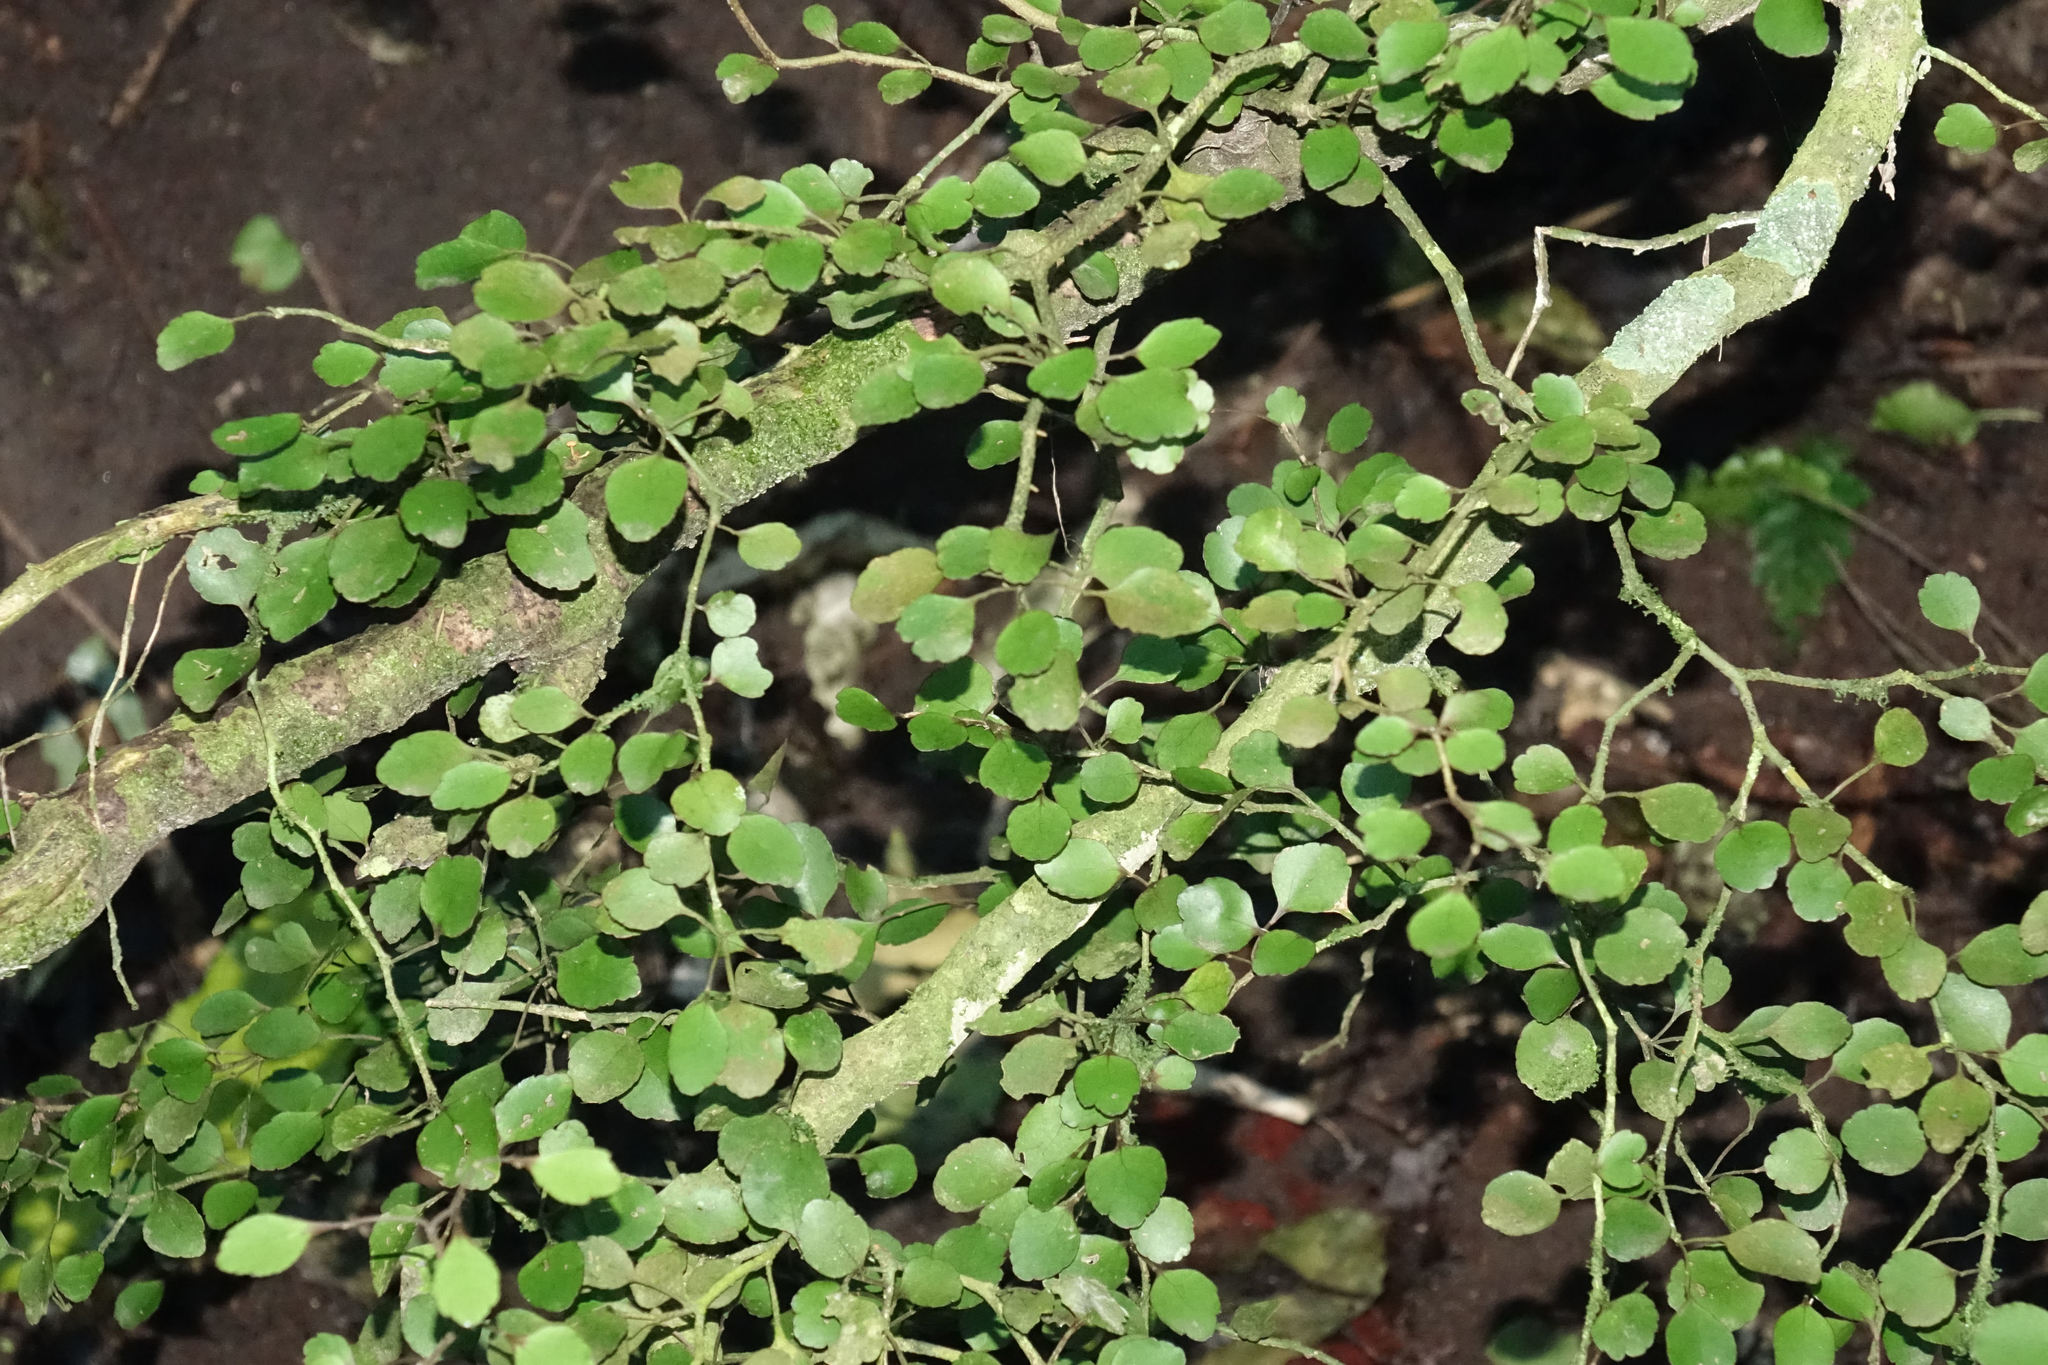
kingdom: Plantae
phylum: Tracheophyta
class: Magnoliopsida
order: Apiales
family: Araliaceae
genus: Raukaua
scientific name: Raukaua anomalus
